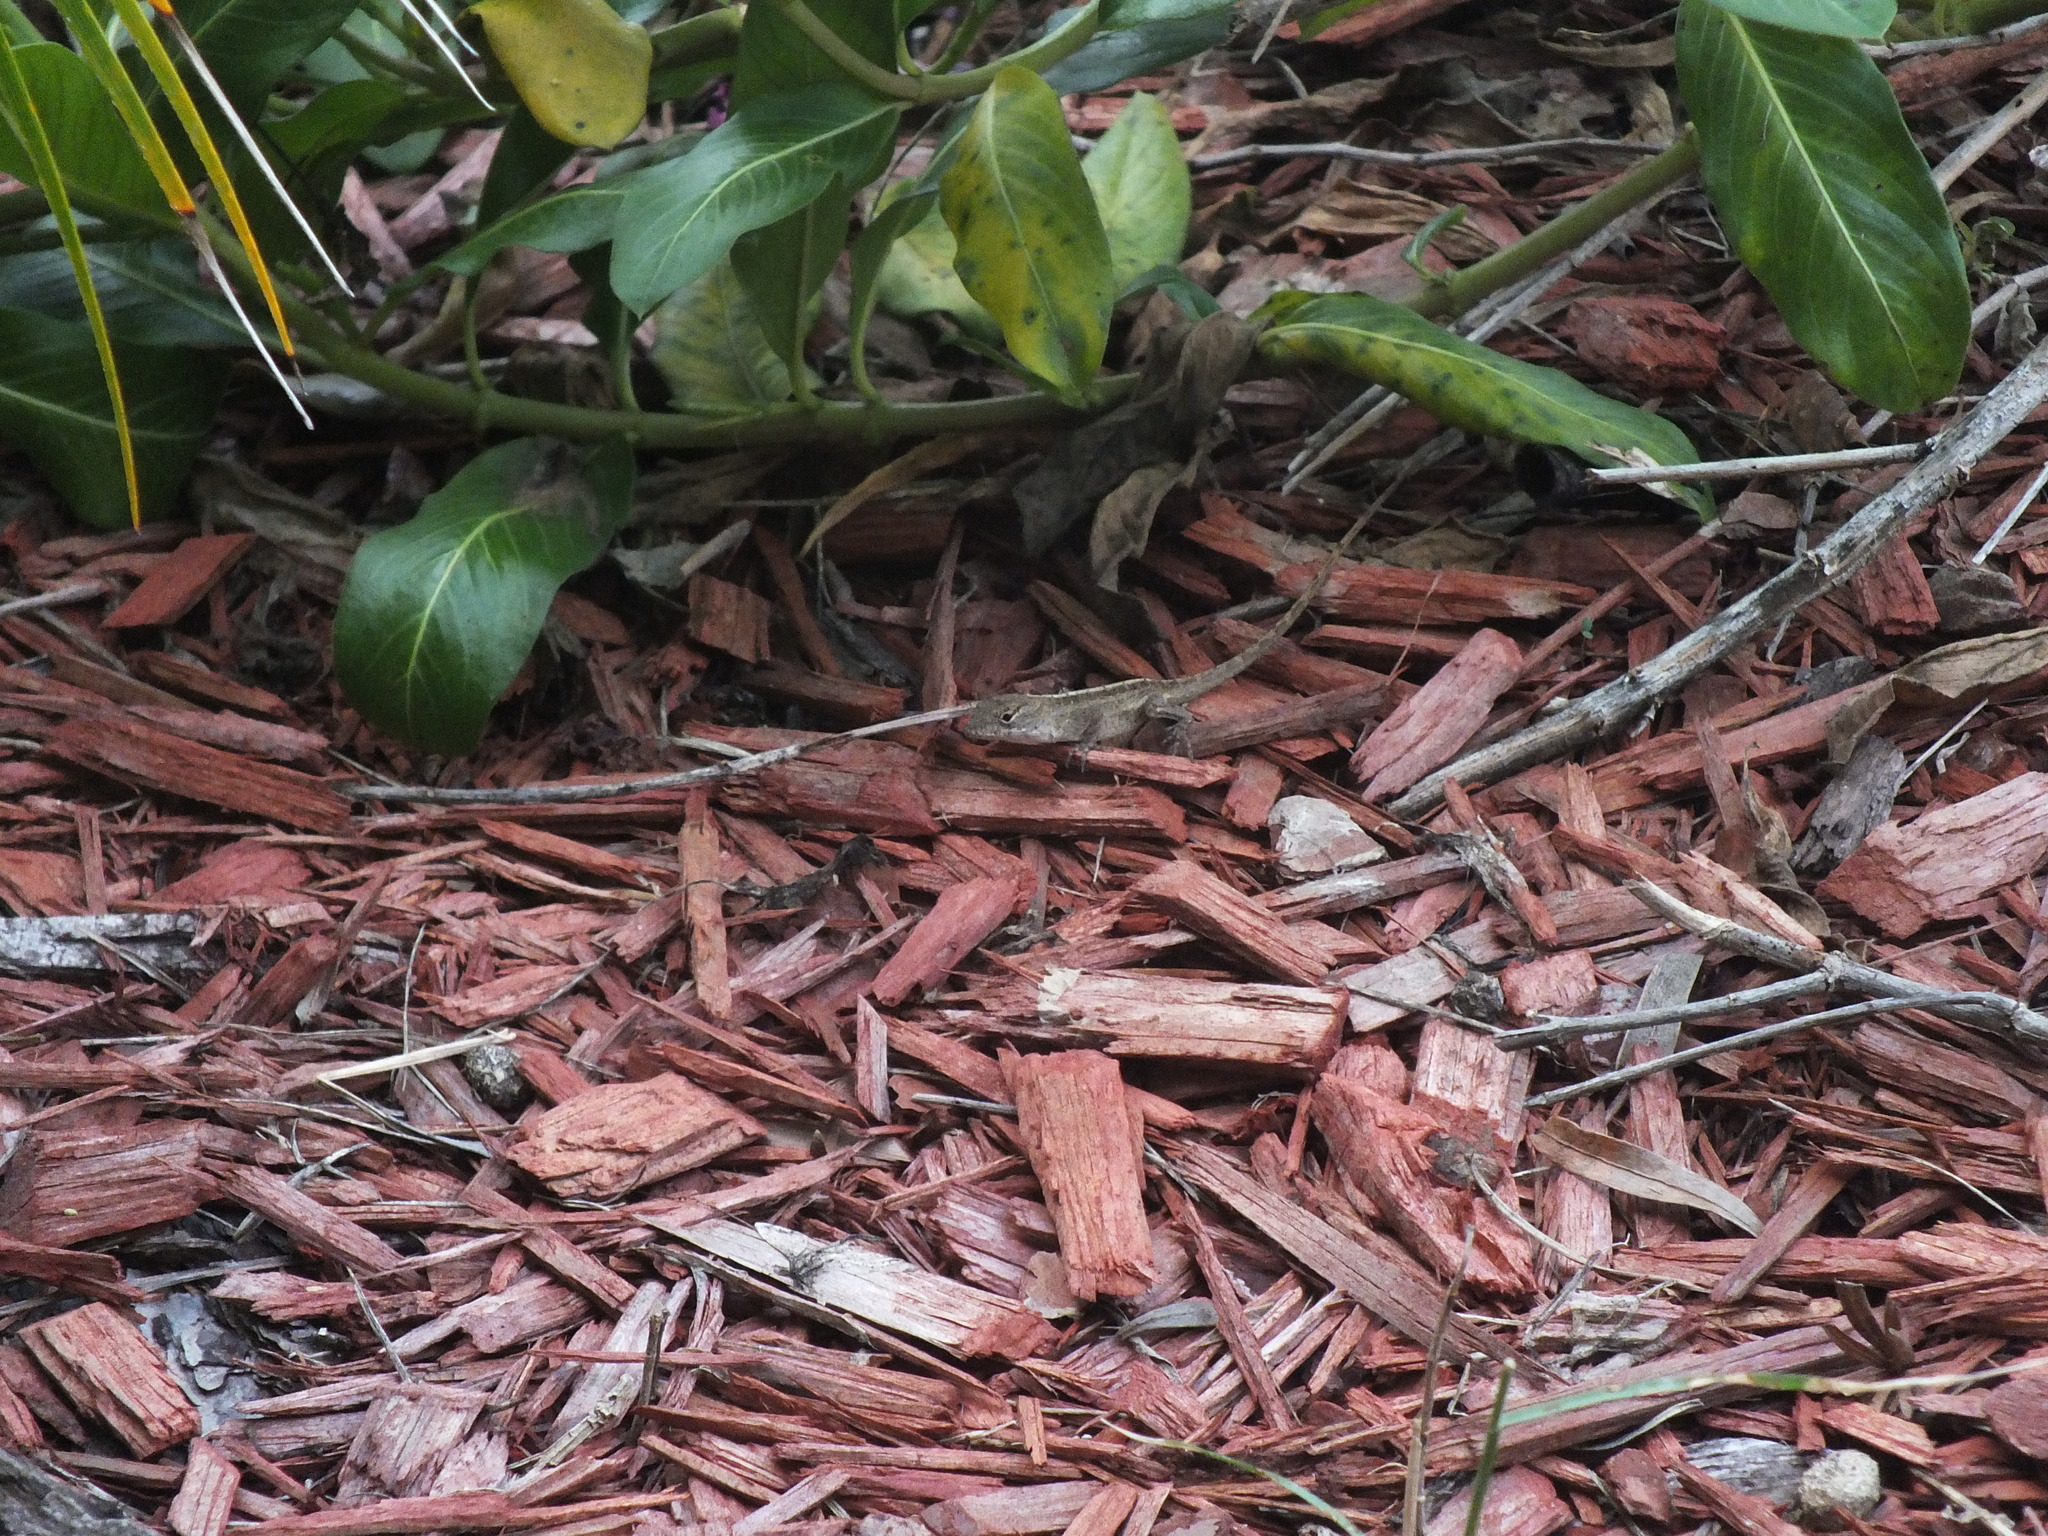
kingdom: Animalia
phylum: Chordata
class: Squamata
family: Dactyloidae
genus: Anolis
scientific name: Anolis sagrei
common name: Brown anole
